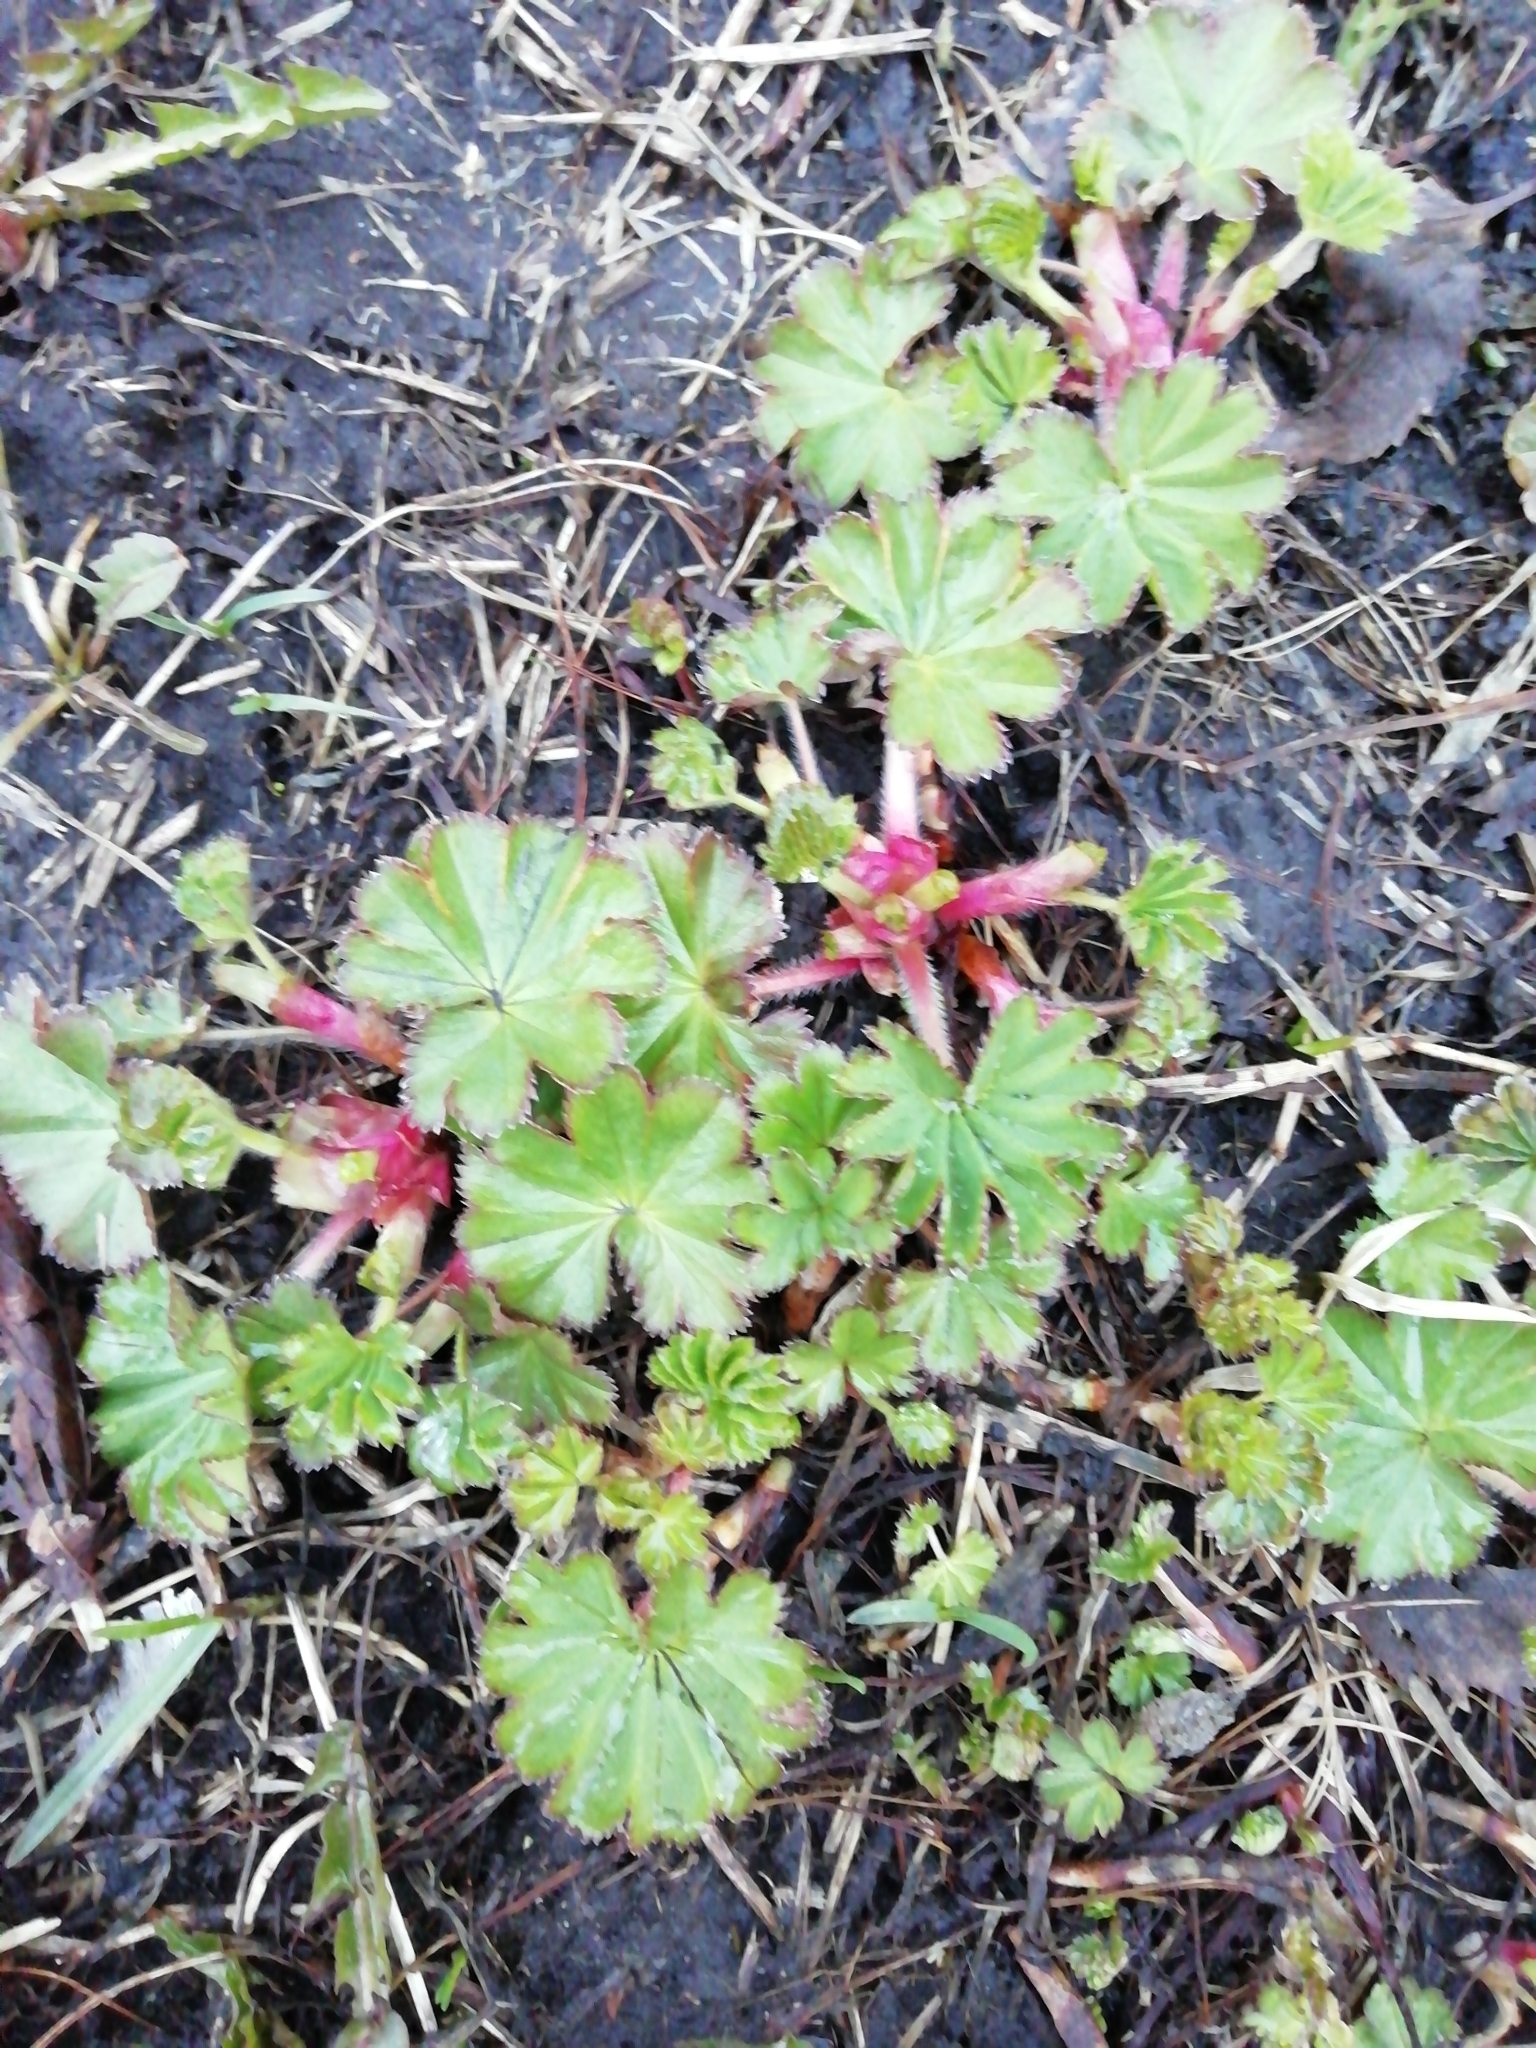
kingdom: Plantae
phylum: Tracheophyta
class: Magnoliopsida
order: Rosales
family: Rosaceae
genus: Alchemilla
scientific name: Alchemilla
